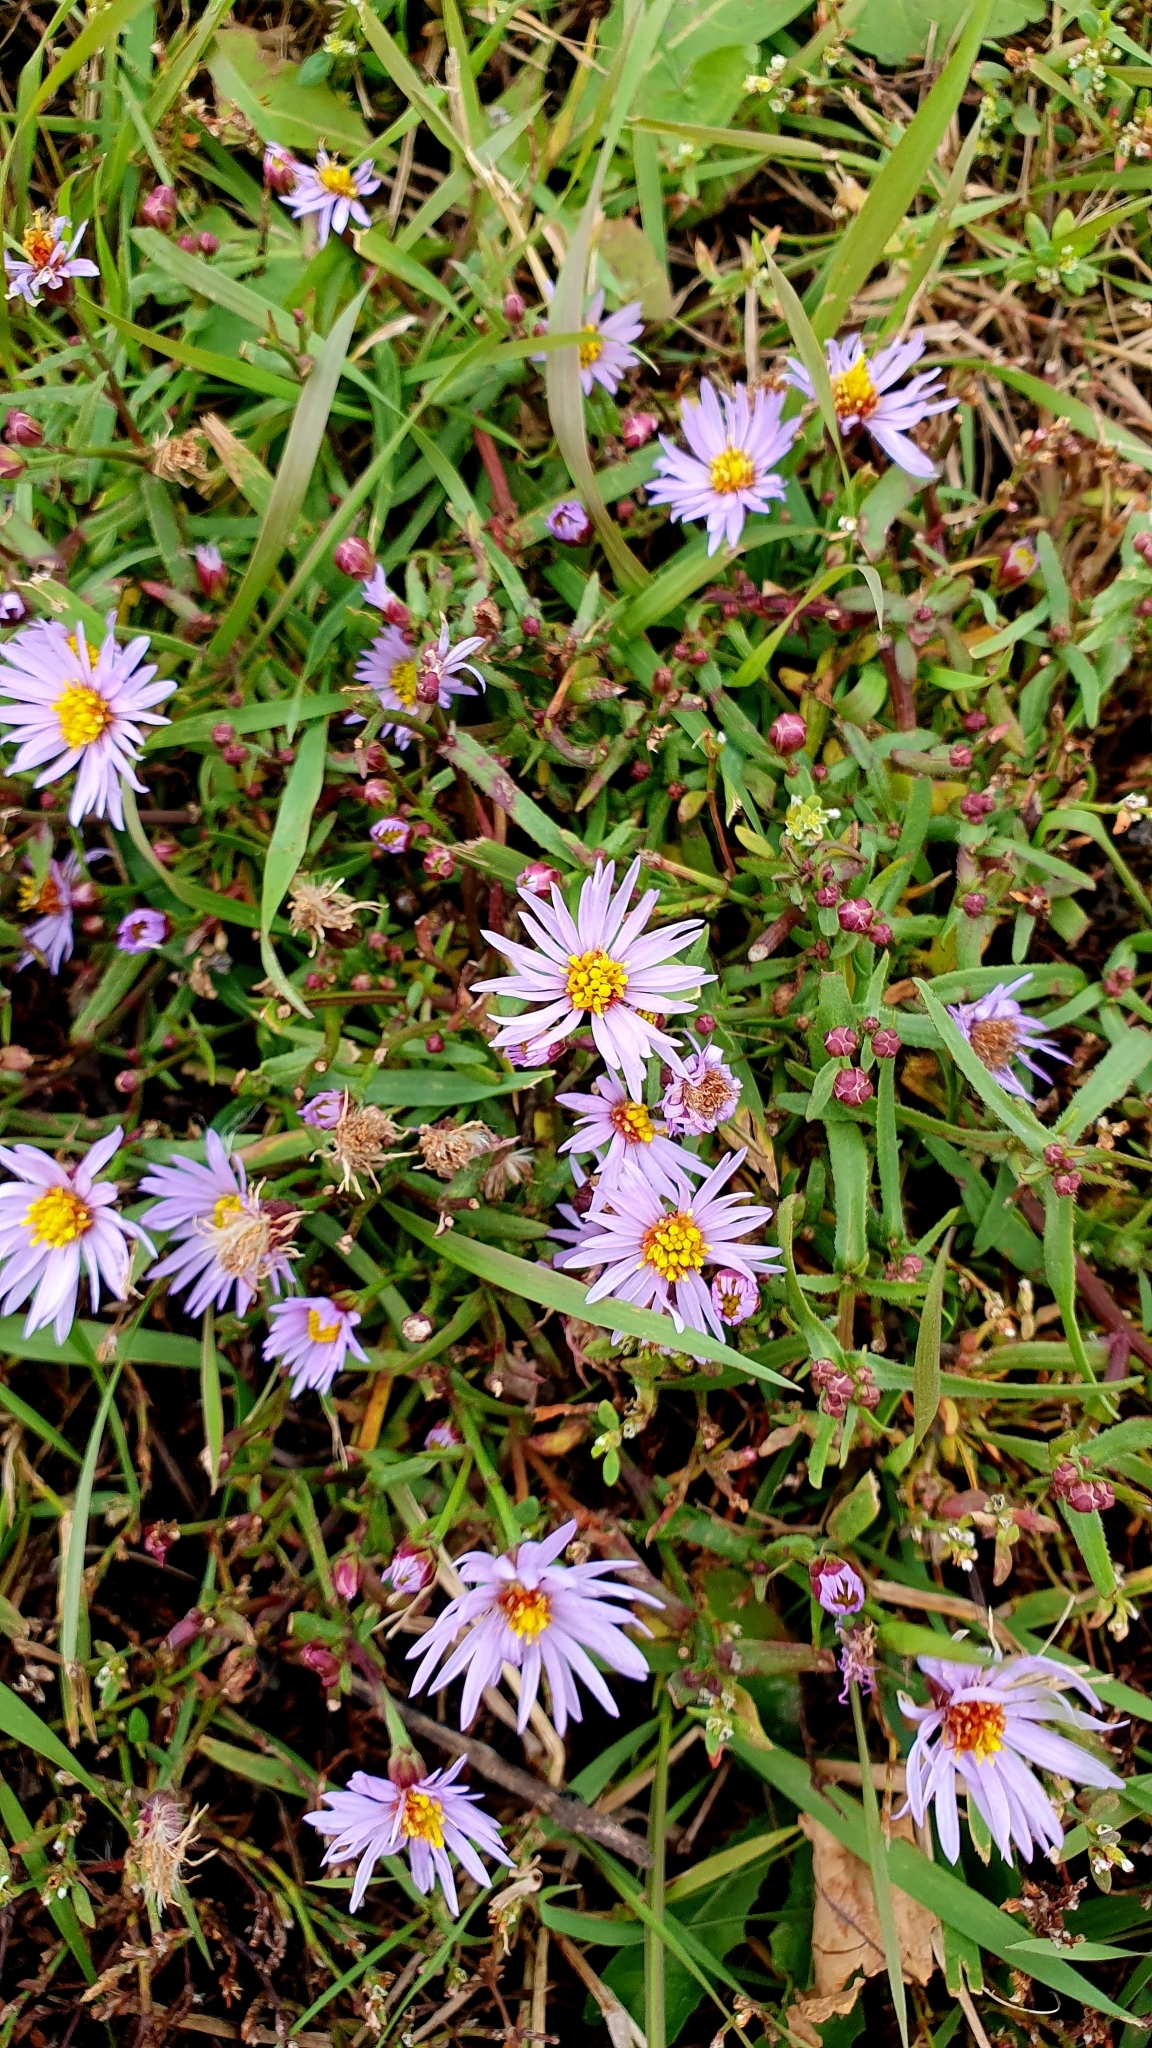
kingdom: Plantae
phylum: Tracheophyta
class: Magnoliopsida
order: Asterales
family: Asteraceae
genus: Tripolium
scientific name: Tripolium pannonicum
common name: Sea aster
